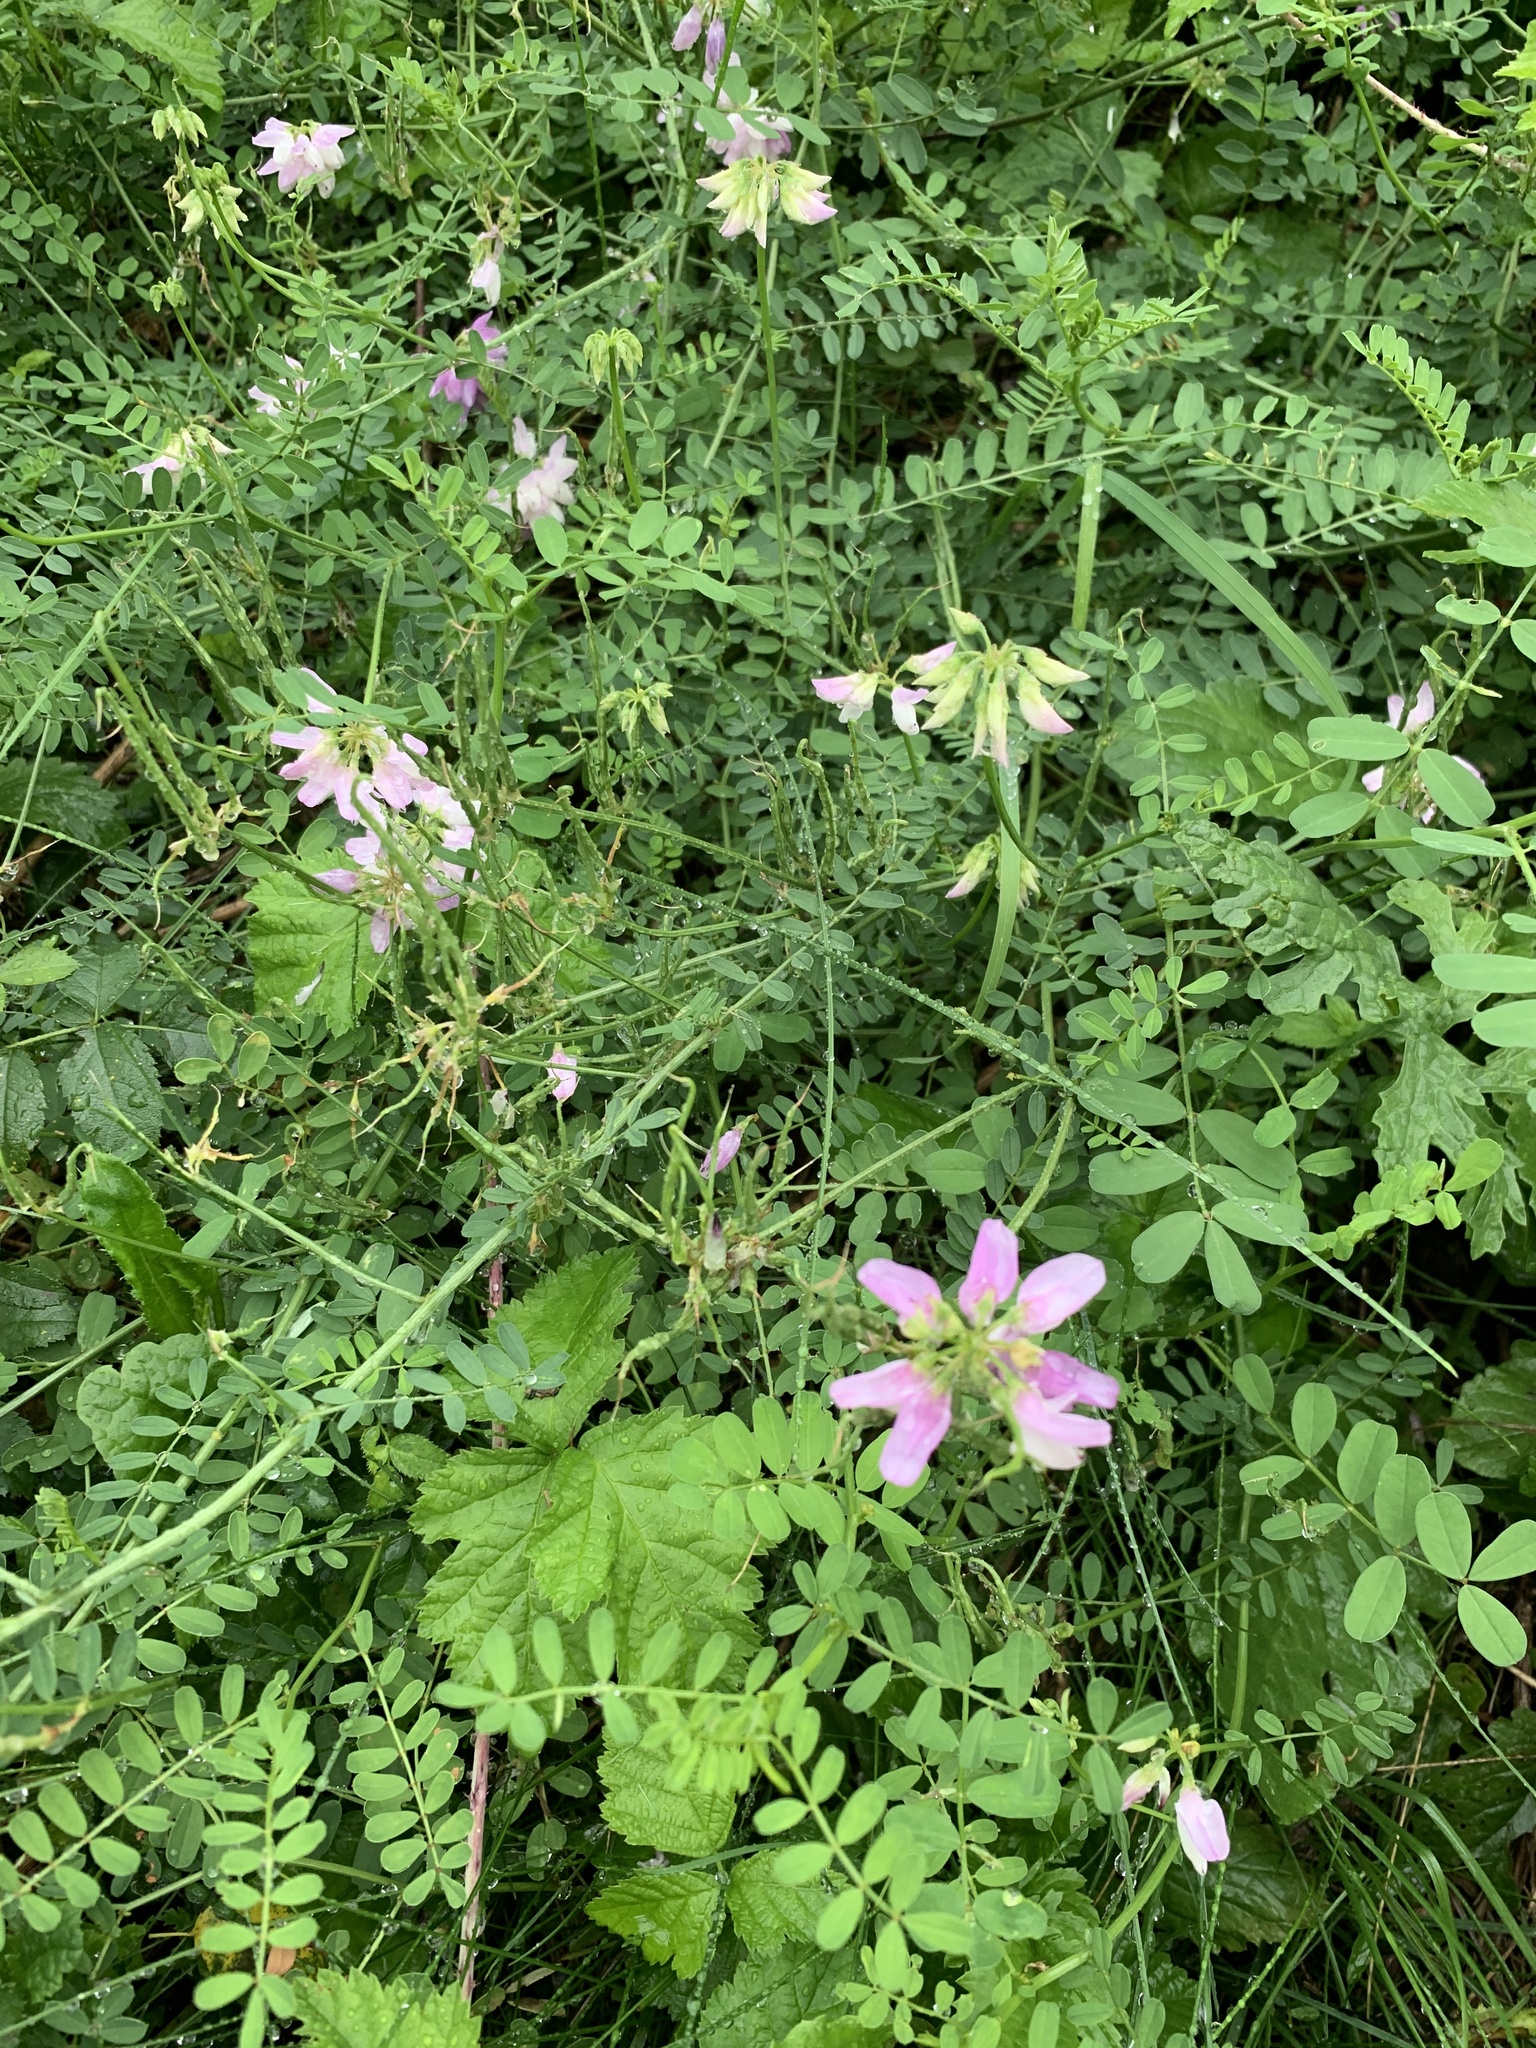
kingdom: Plantae
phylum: Tracheophyta
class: Magnoliopsida
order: Fabales
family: Fabaceae
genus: Coronilla
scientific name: Coronilla varia
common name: Crownvetch
